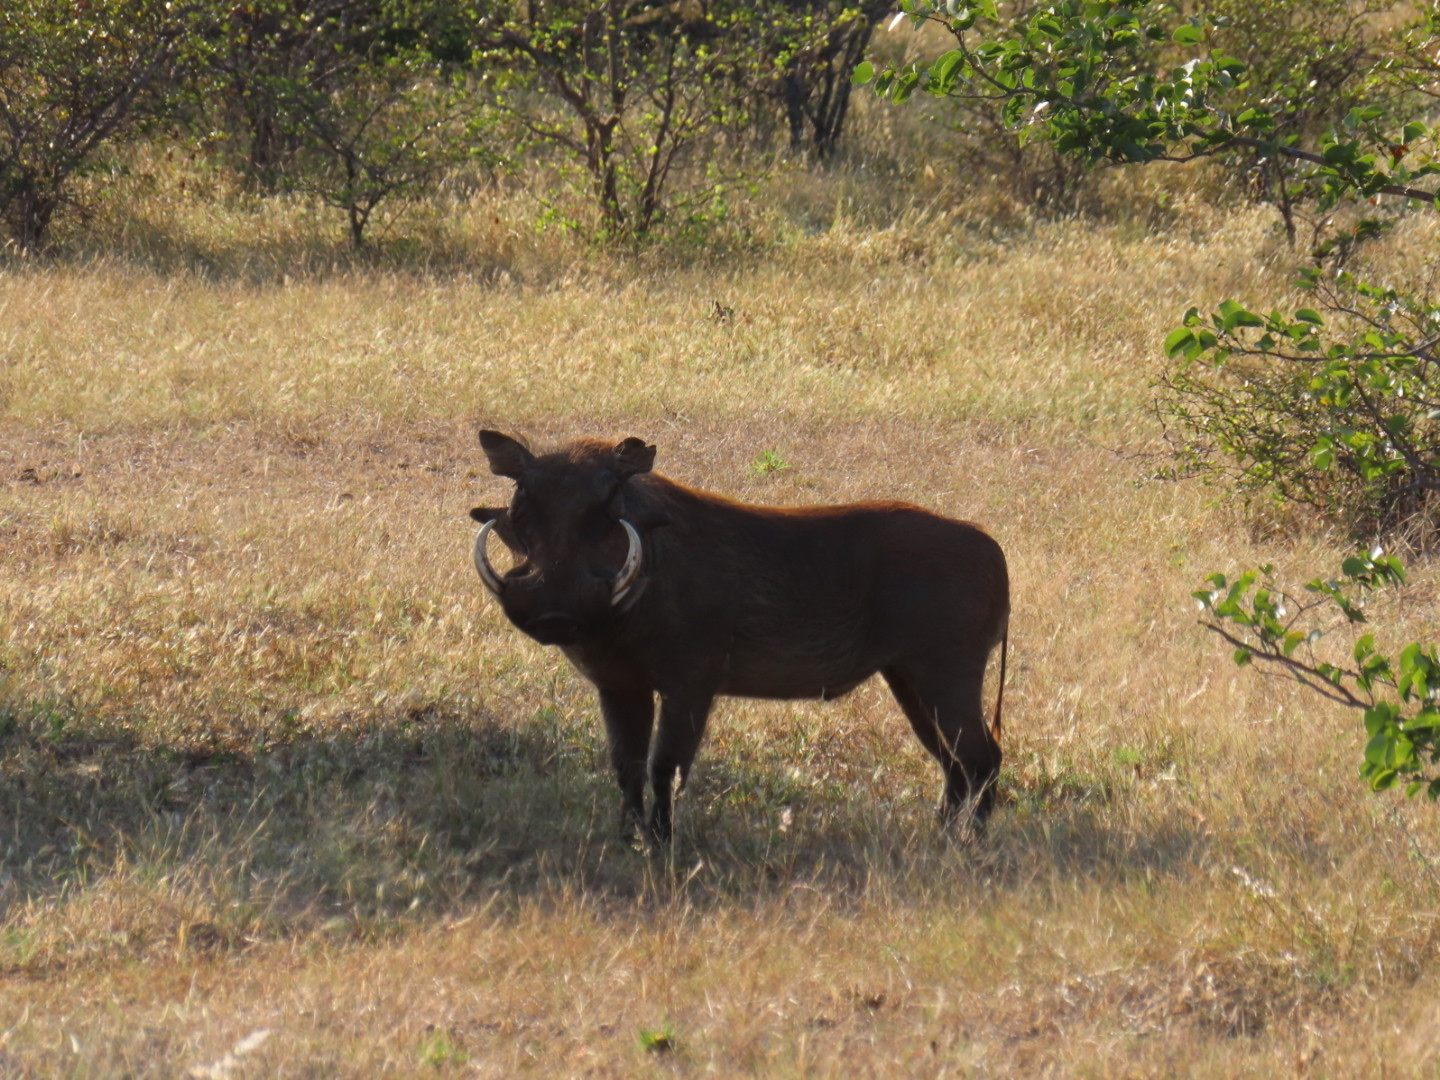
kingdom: Animalia
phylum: Chordata
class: Mammalia
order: Artiodactyla
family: Suidae
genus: Phacochoerus
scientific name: Phacochoerus africanus
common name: Common warthog
